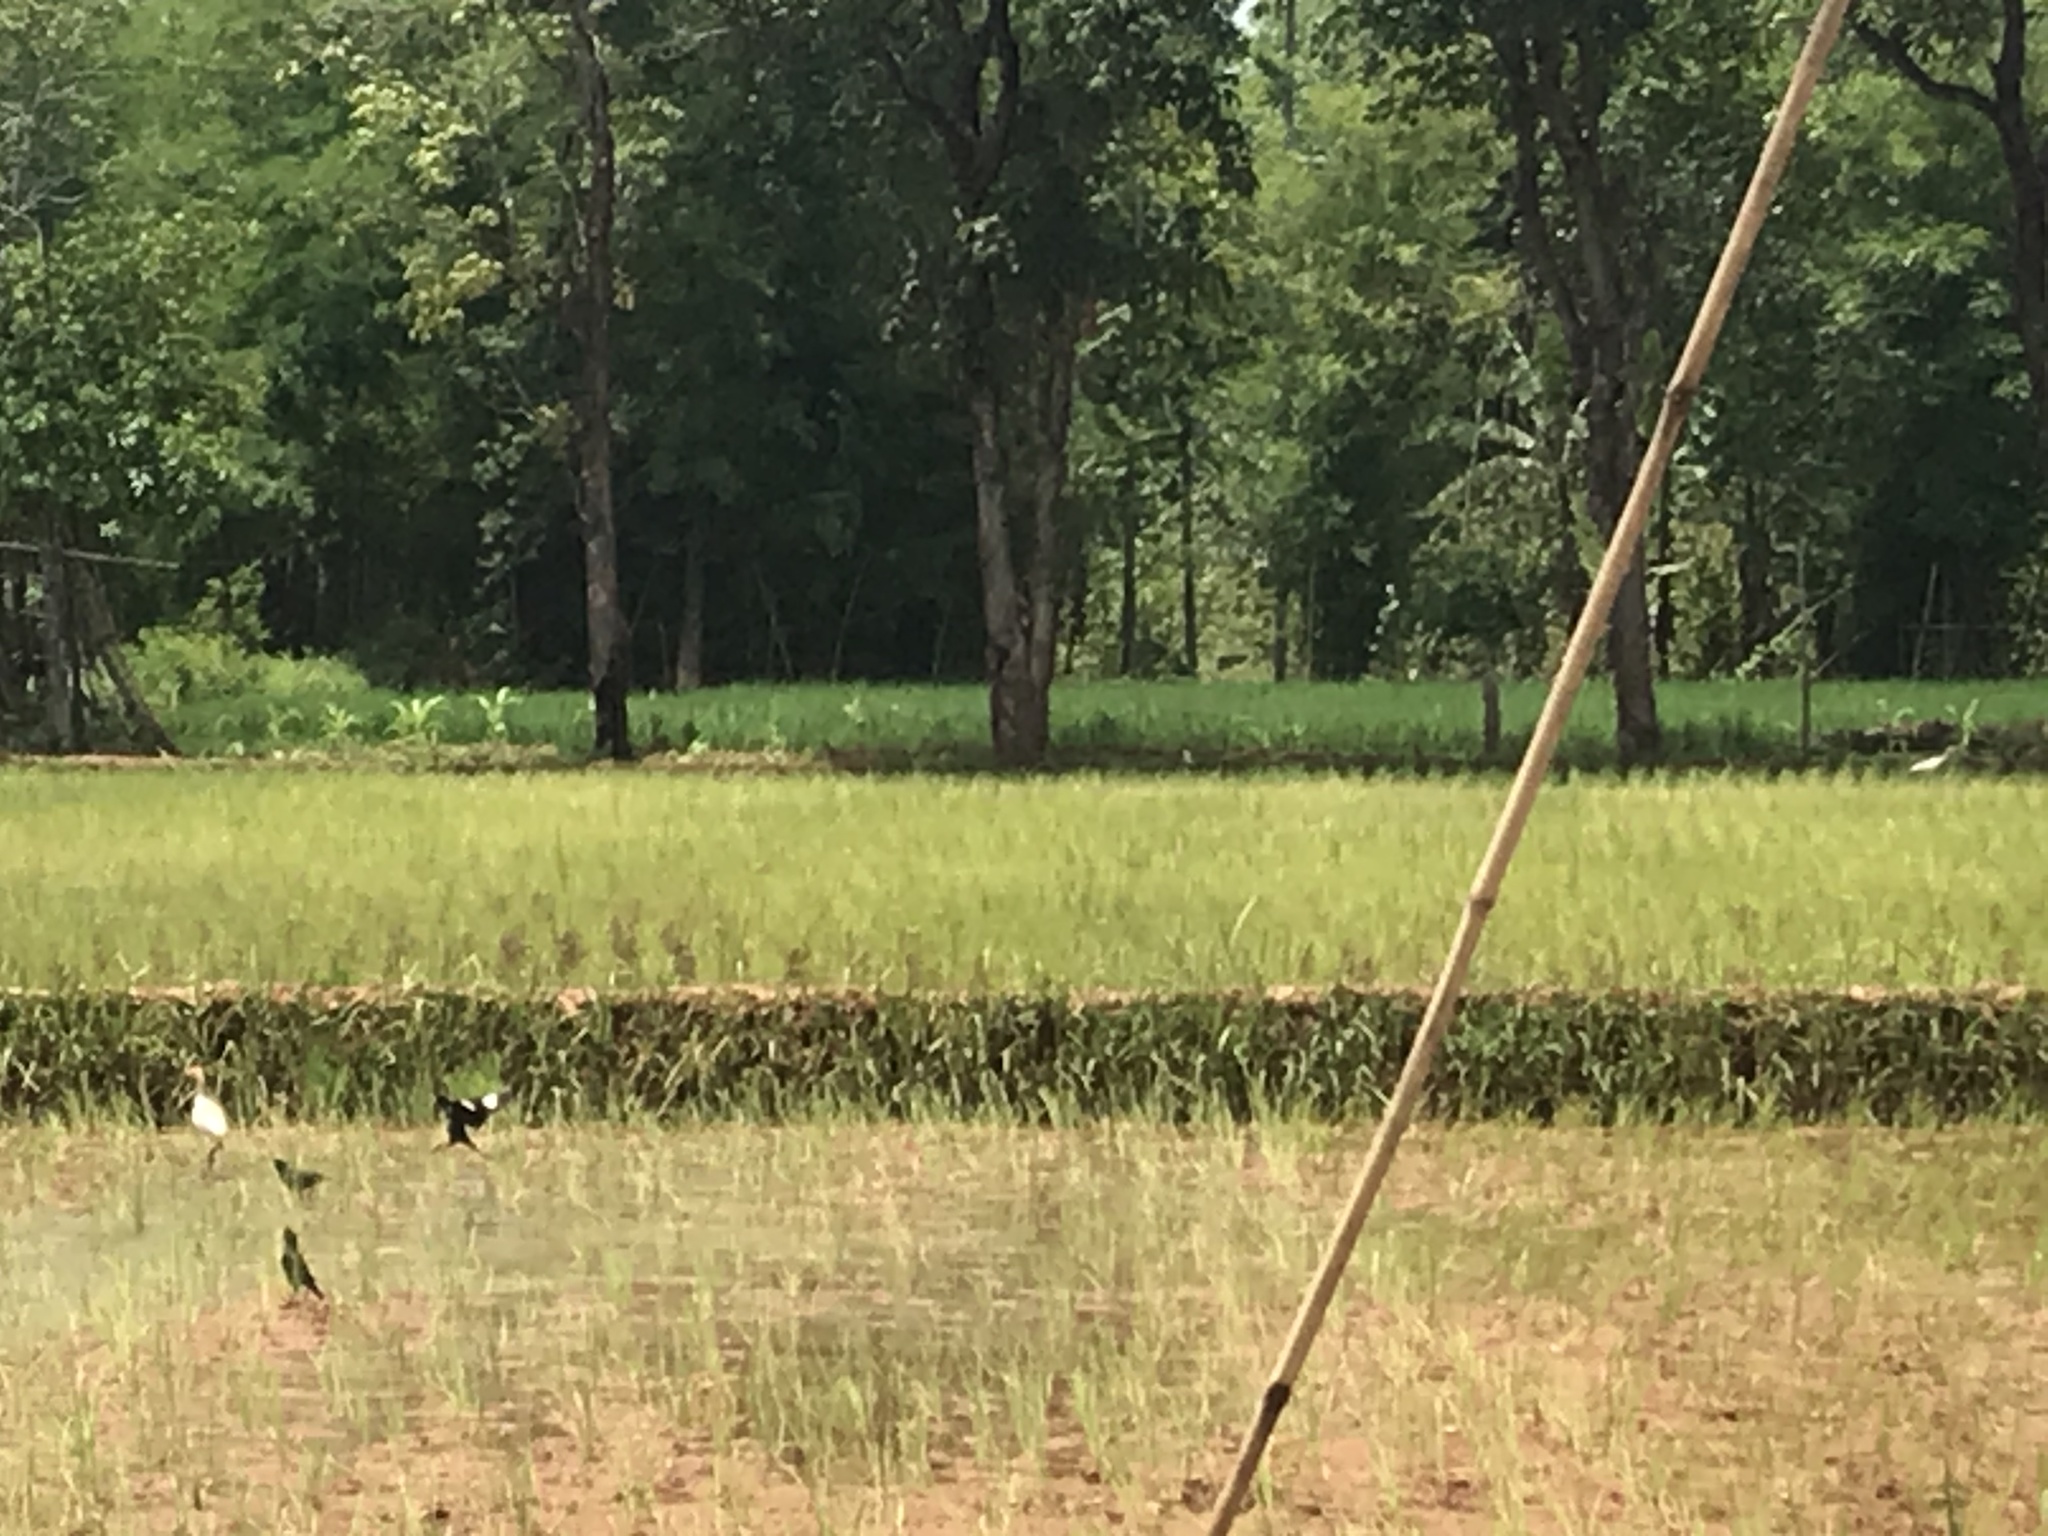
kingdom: Animalia
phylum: Chordata
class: Aves
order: Pelecaniformes
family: Ardeidae
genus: Bubulcus
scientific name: Bubulcus coromandus
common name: Eastern cattle egret
